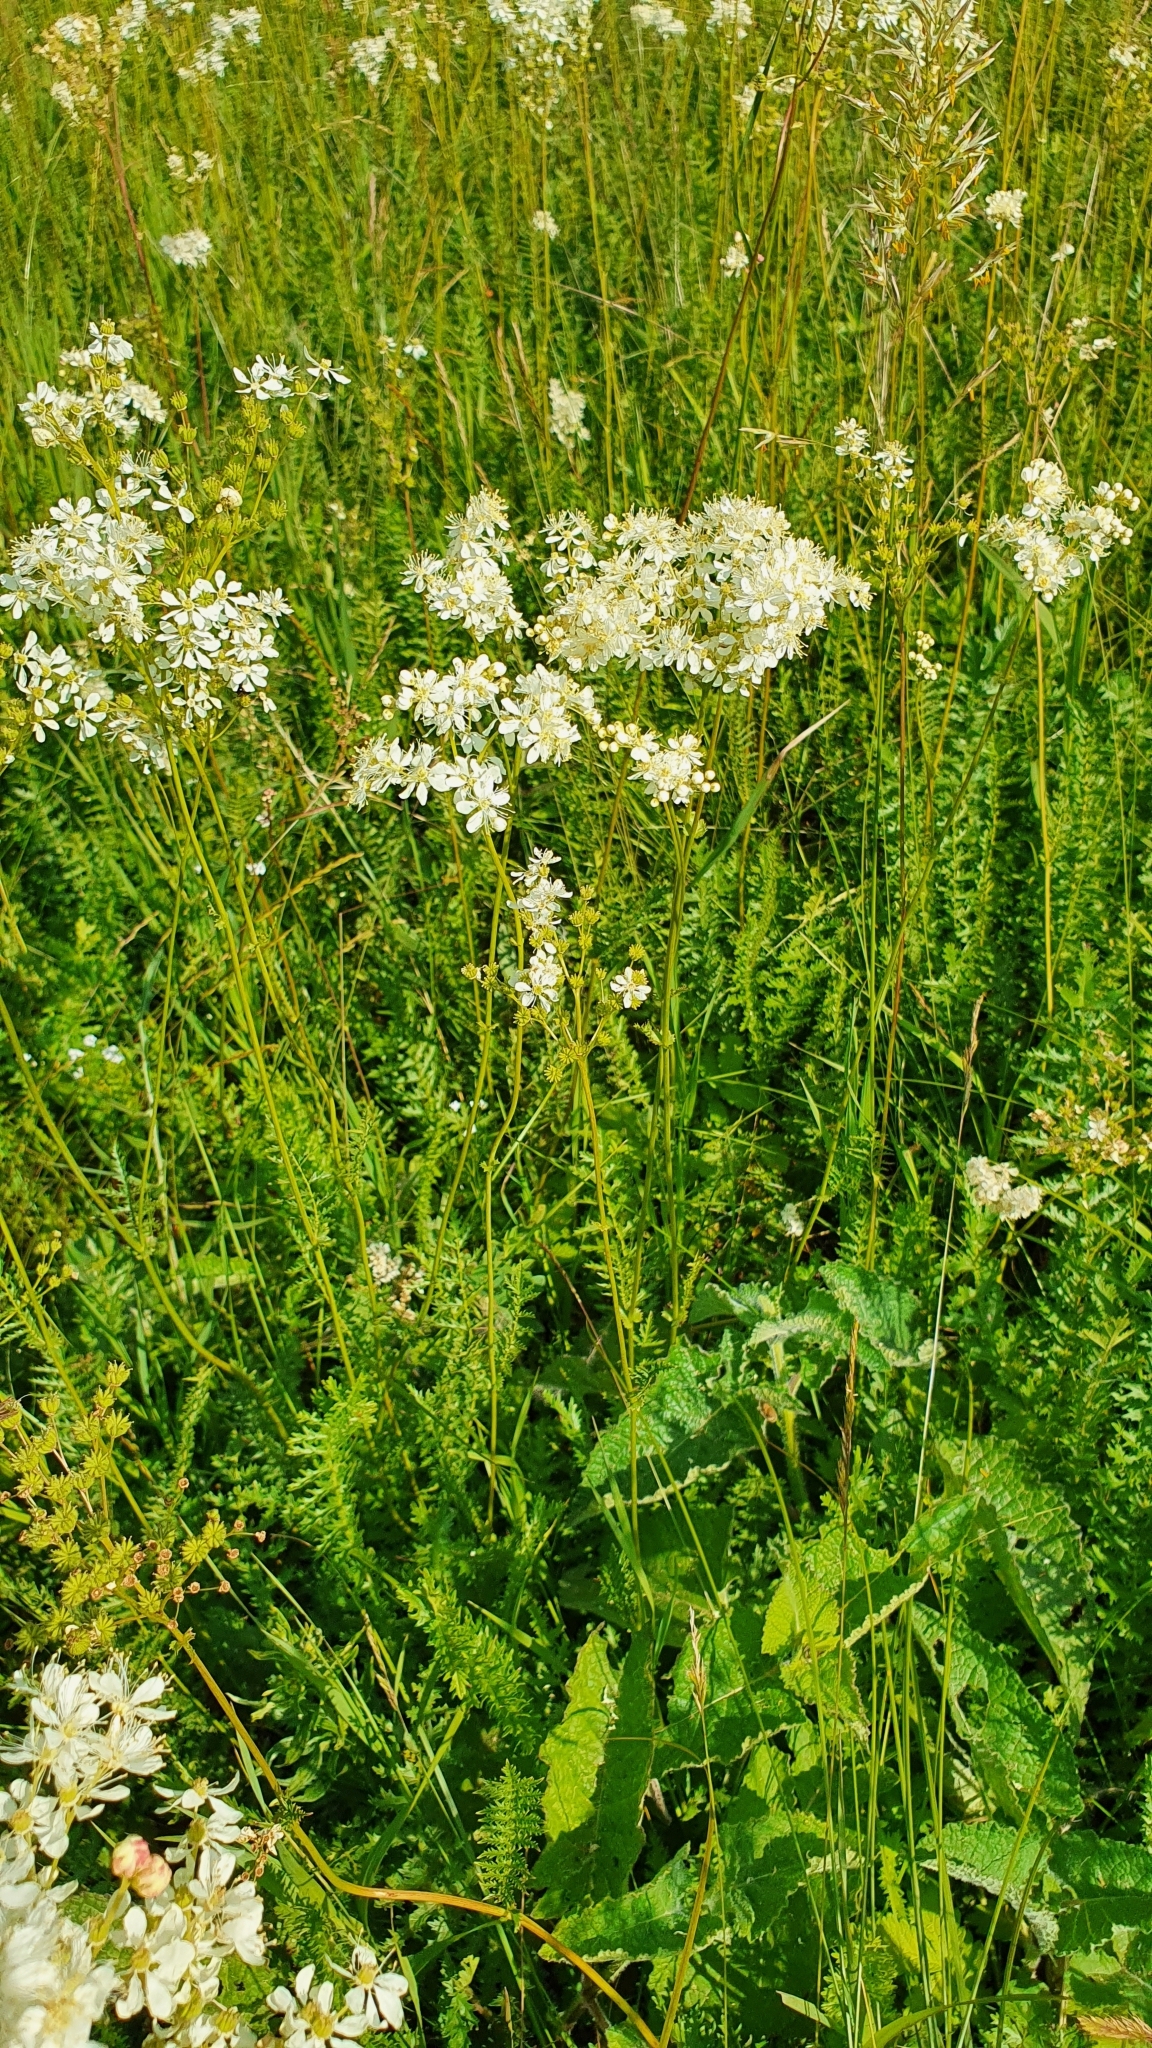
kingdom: Plantae
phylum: Tracheophyta
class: Magnoliopsida
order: Rosales
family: Rosaceae
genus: Filipendula
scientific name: Filipendula vulgaris
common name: Dropwort
